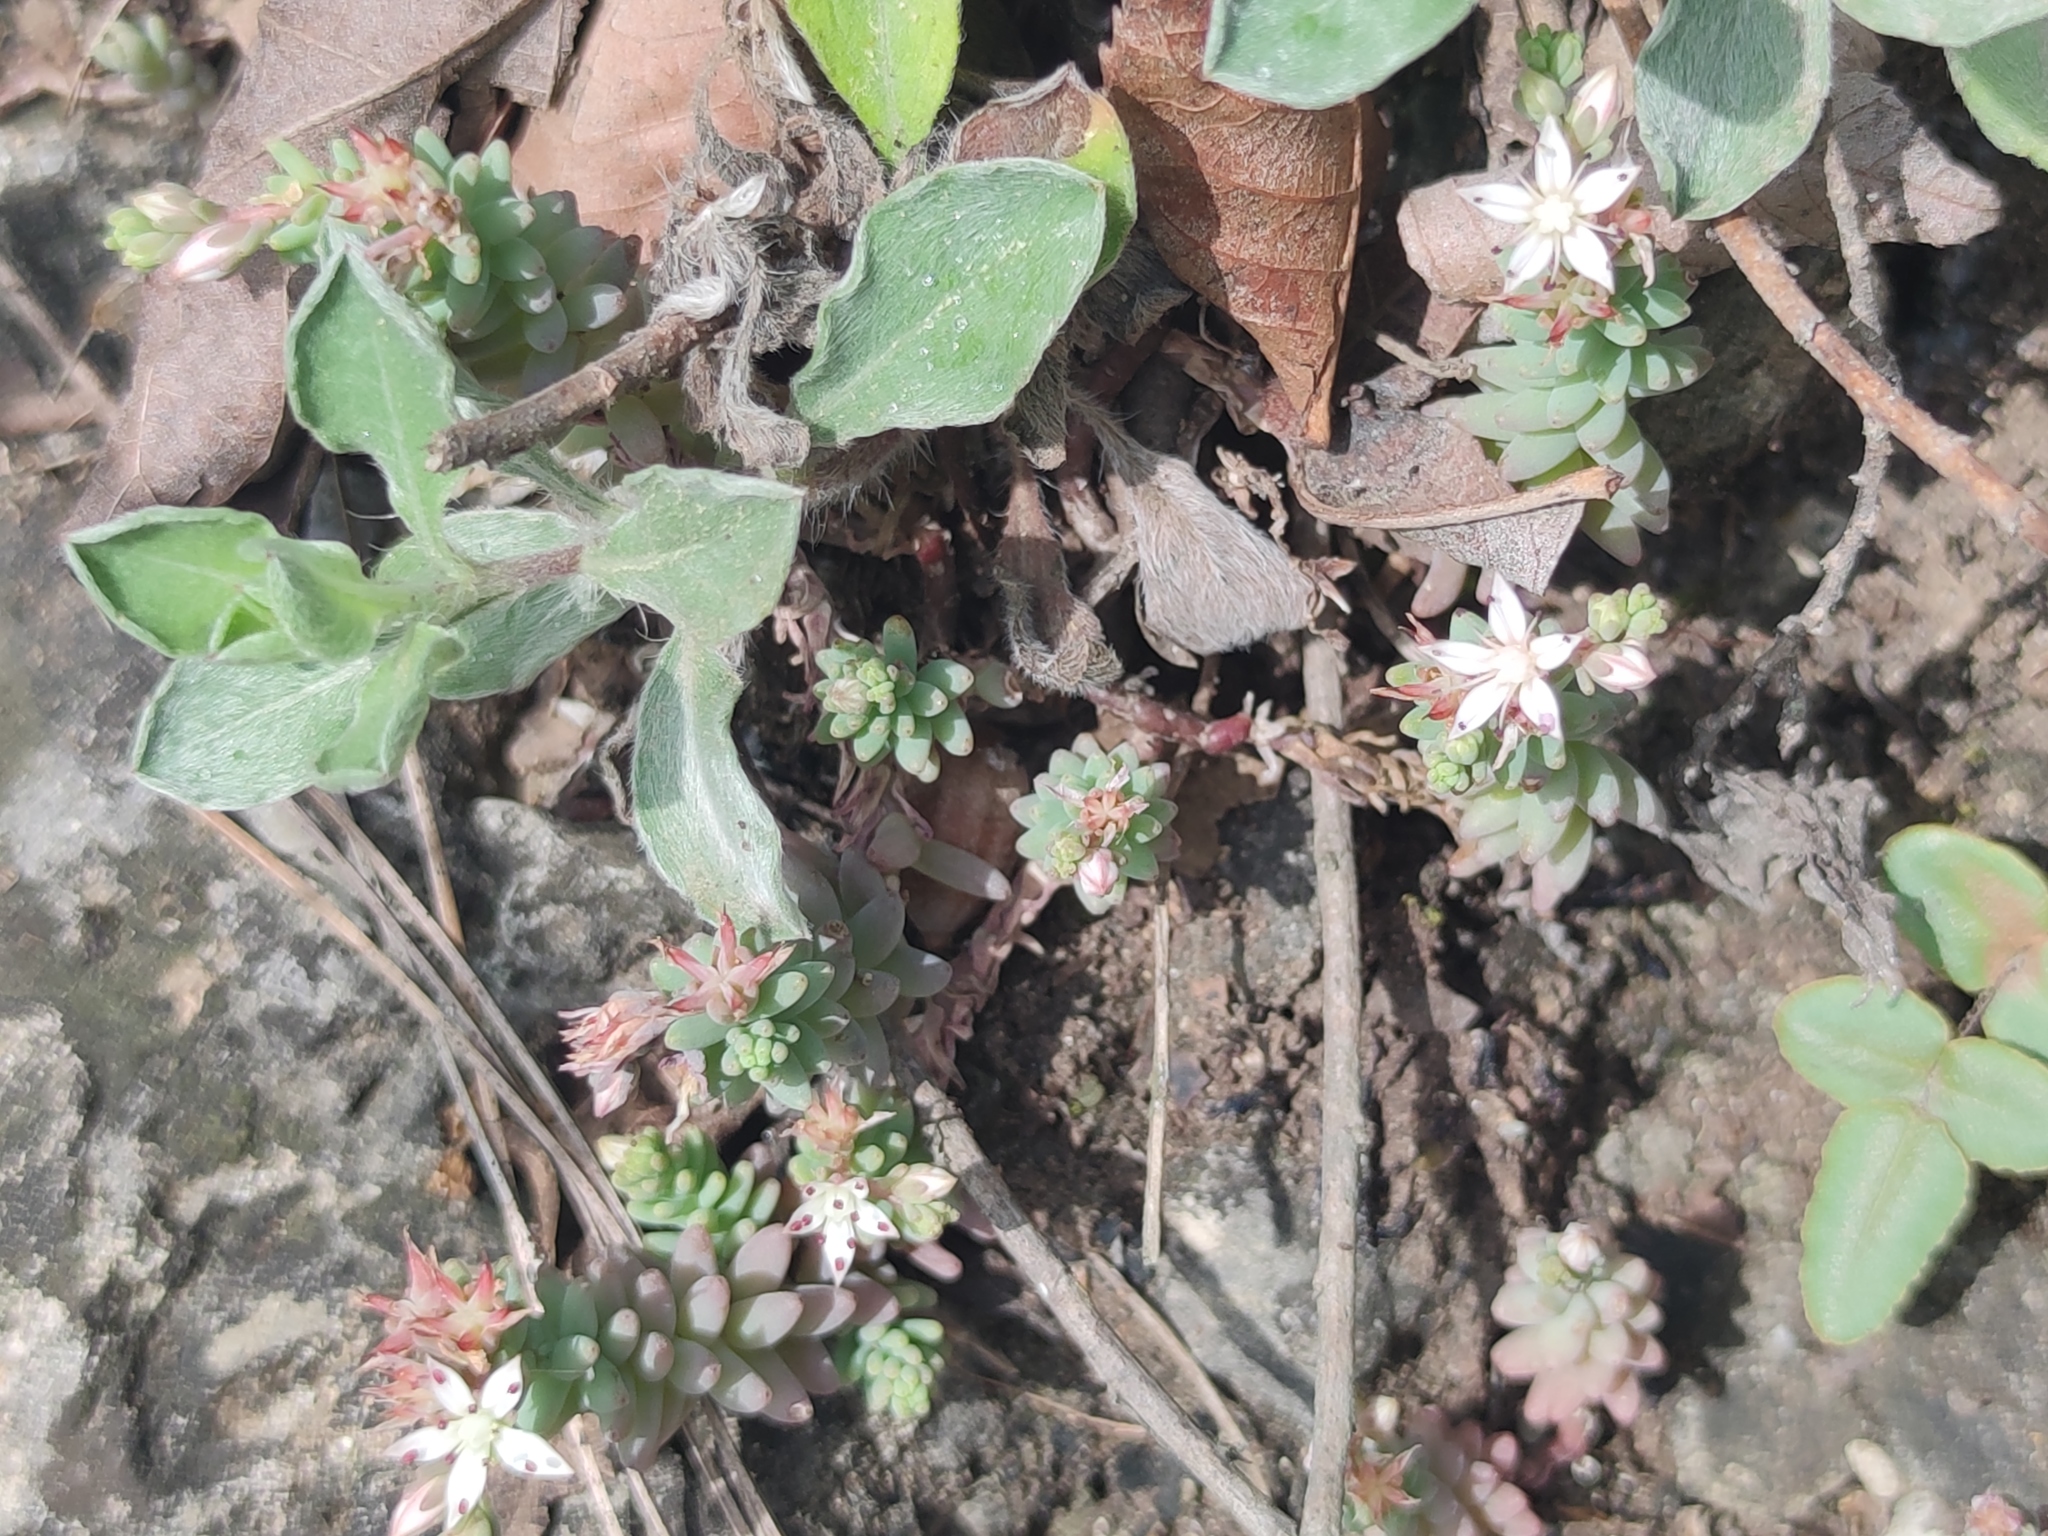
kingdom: Plantae
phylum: Tracheophyta
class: Magnoliopsida
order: Saxifragales
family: Crassulaceae
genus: Sedum
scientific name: Sedum potosinum
